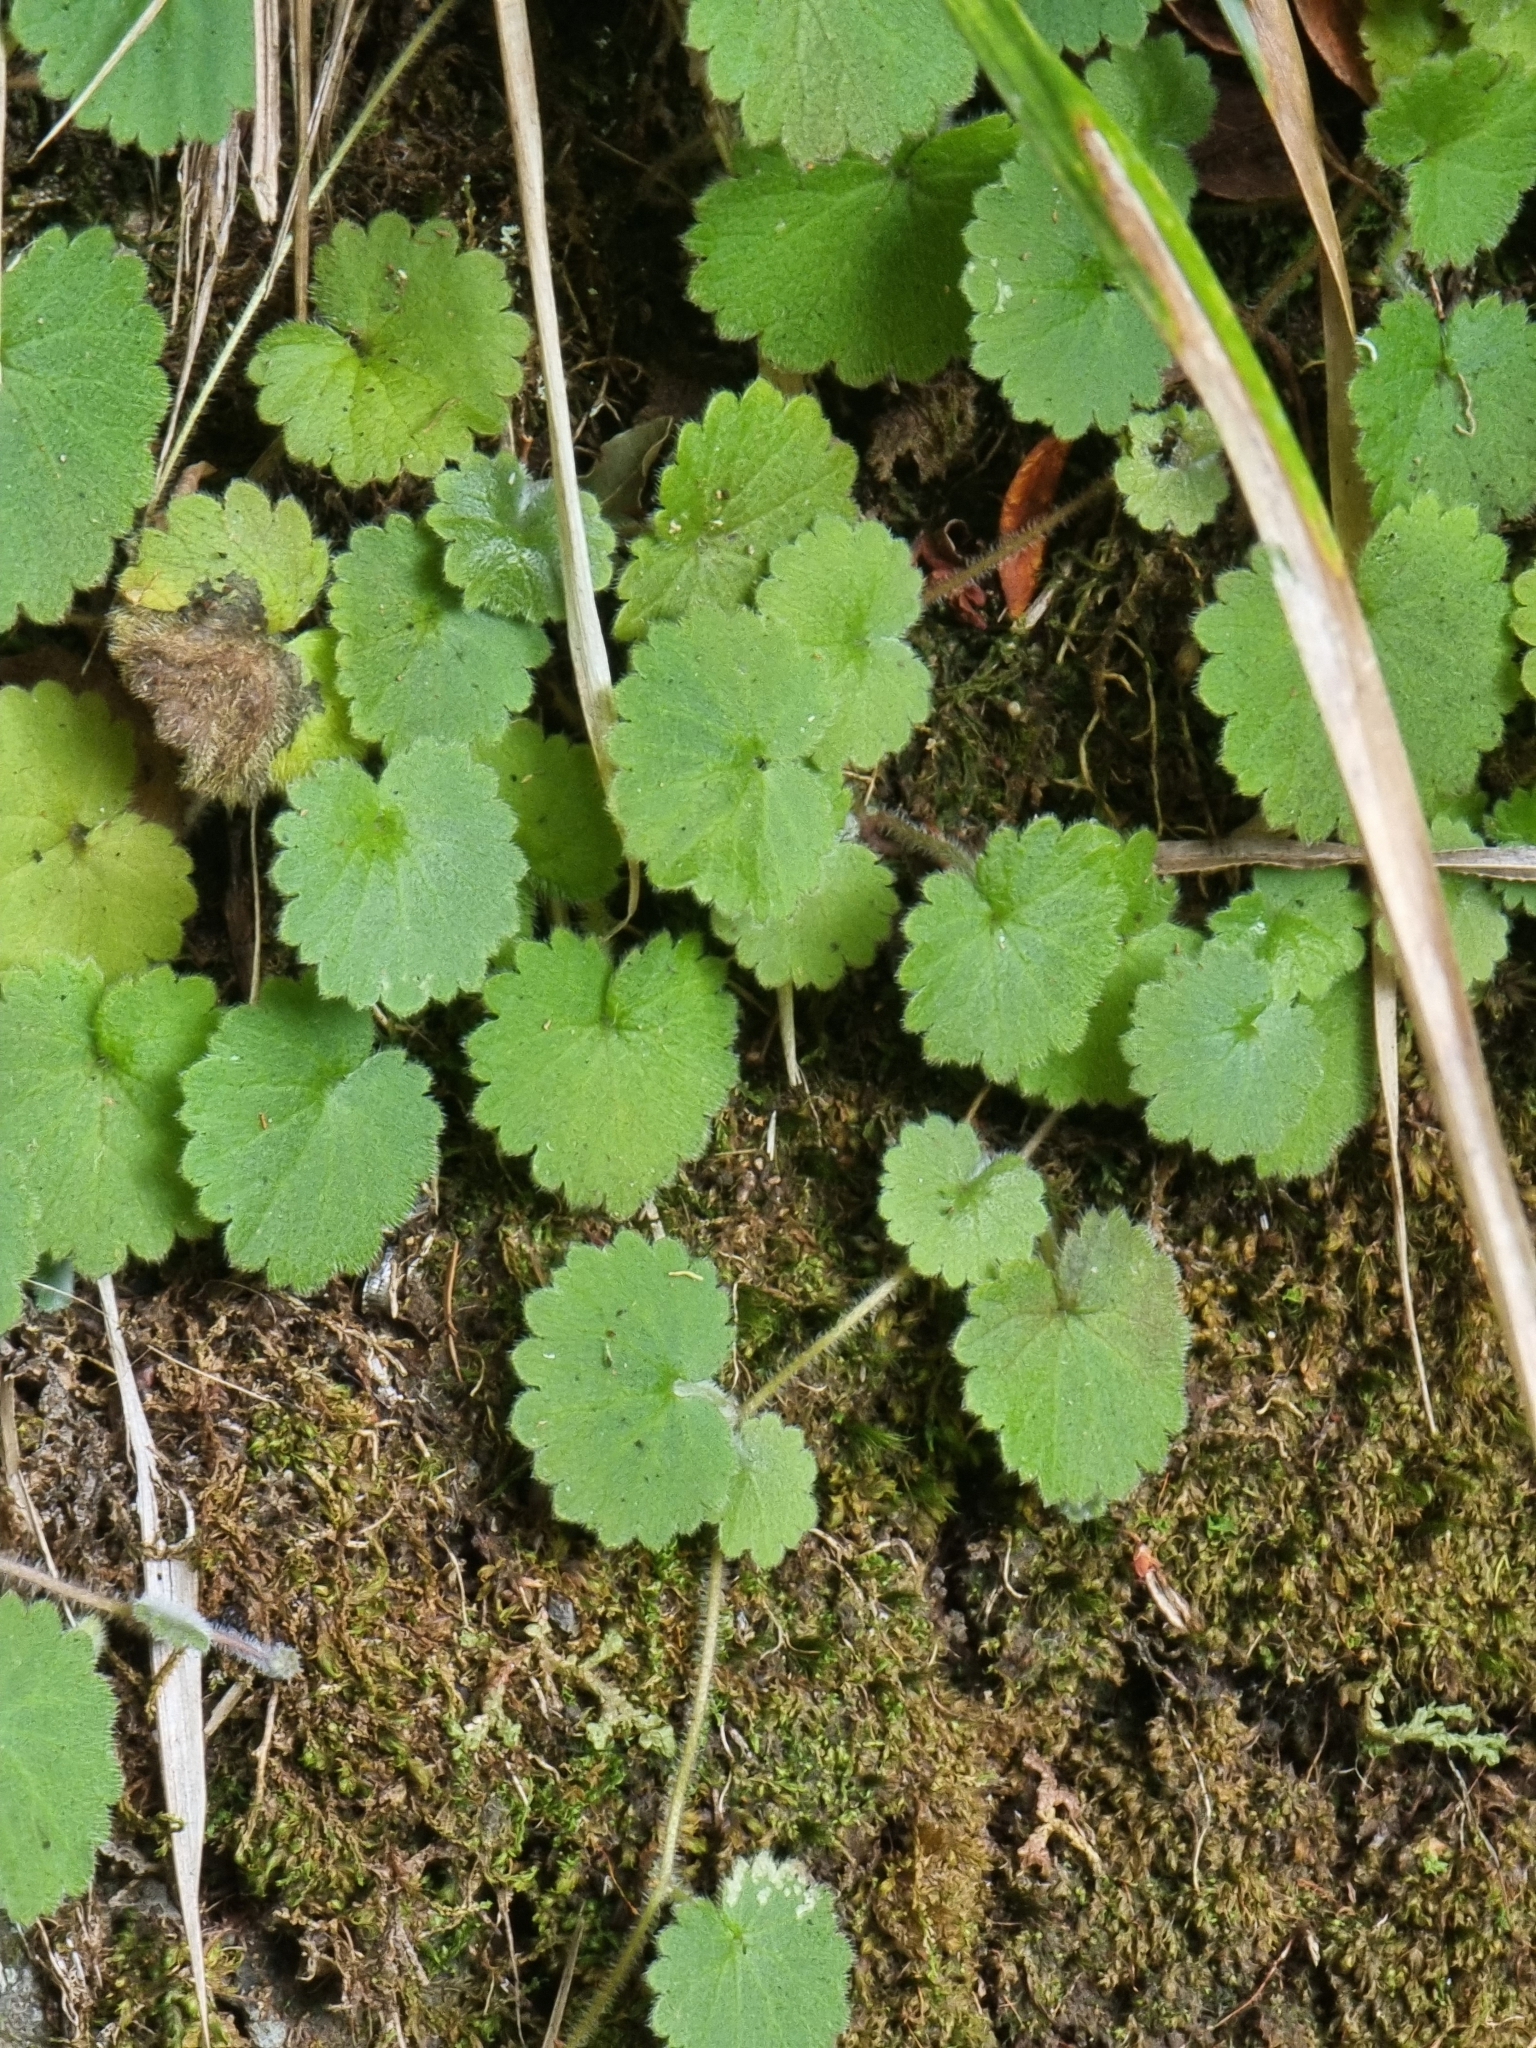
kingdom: Plantae
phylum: Tracheophyta
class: Magnoliopsida
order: Lamiales
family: Plantaginaceae
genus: Sibthorpia
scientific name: Sibthorpia peregrina
